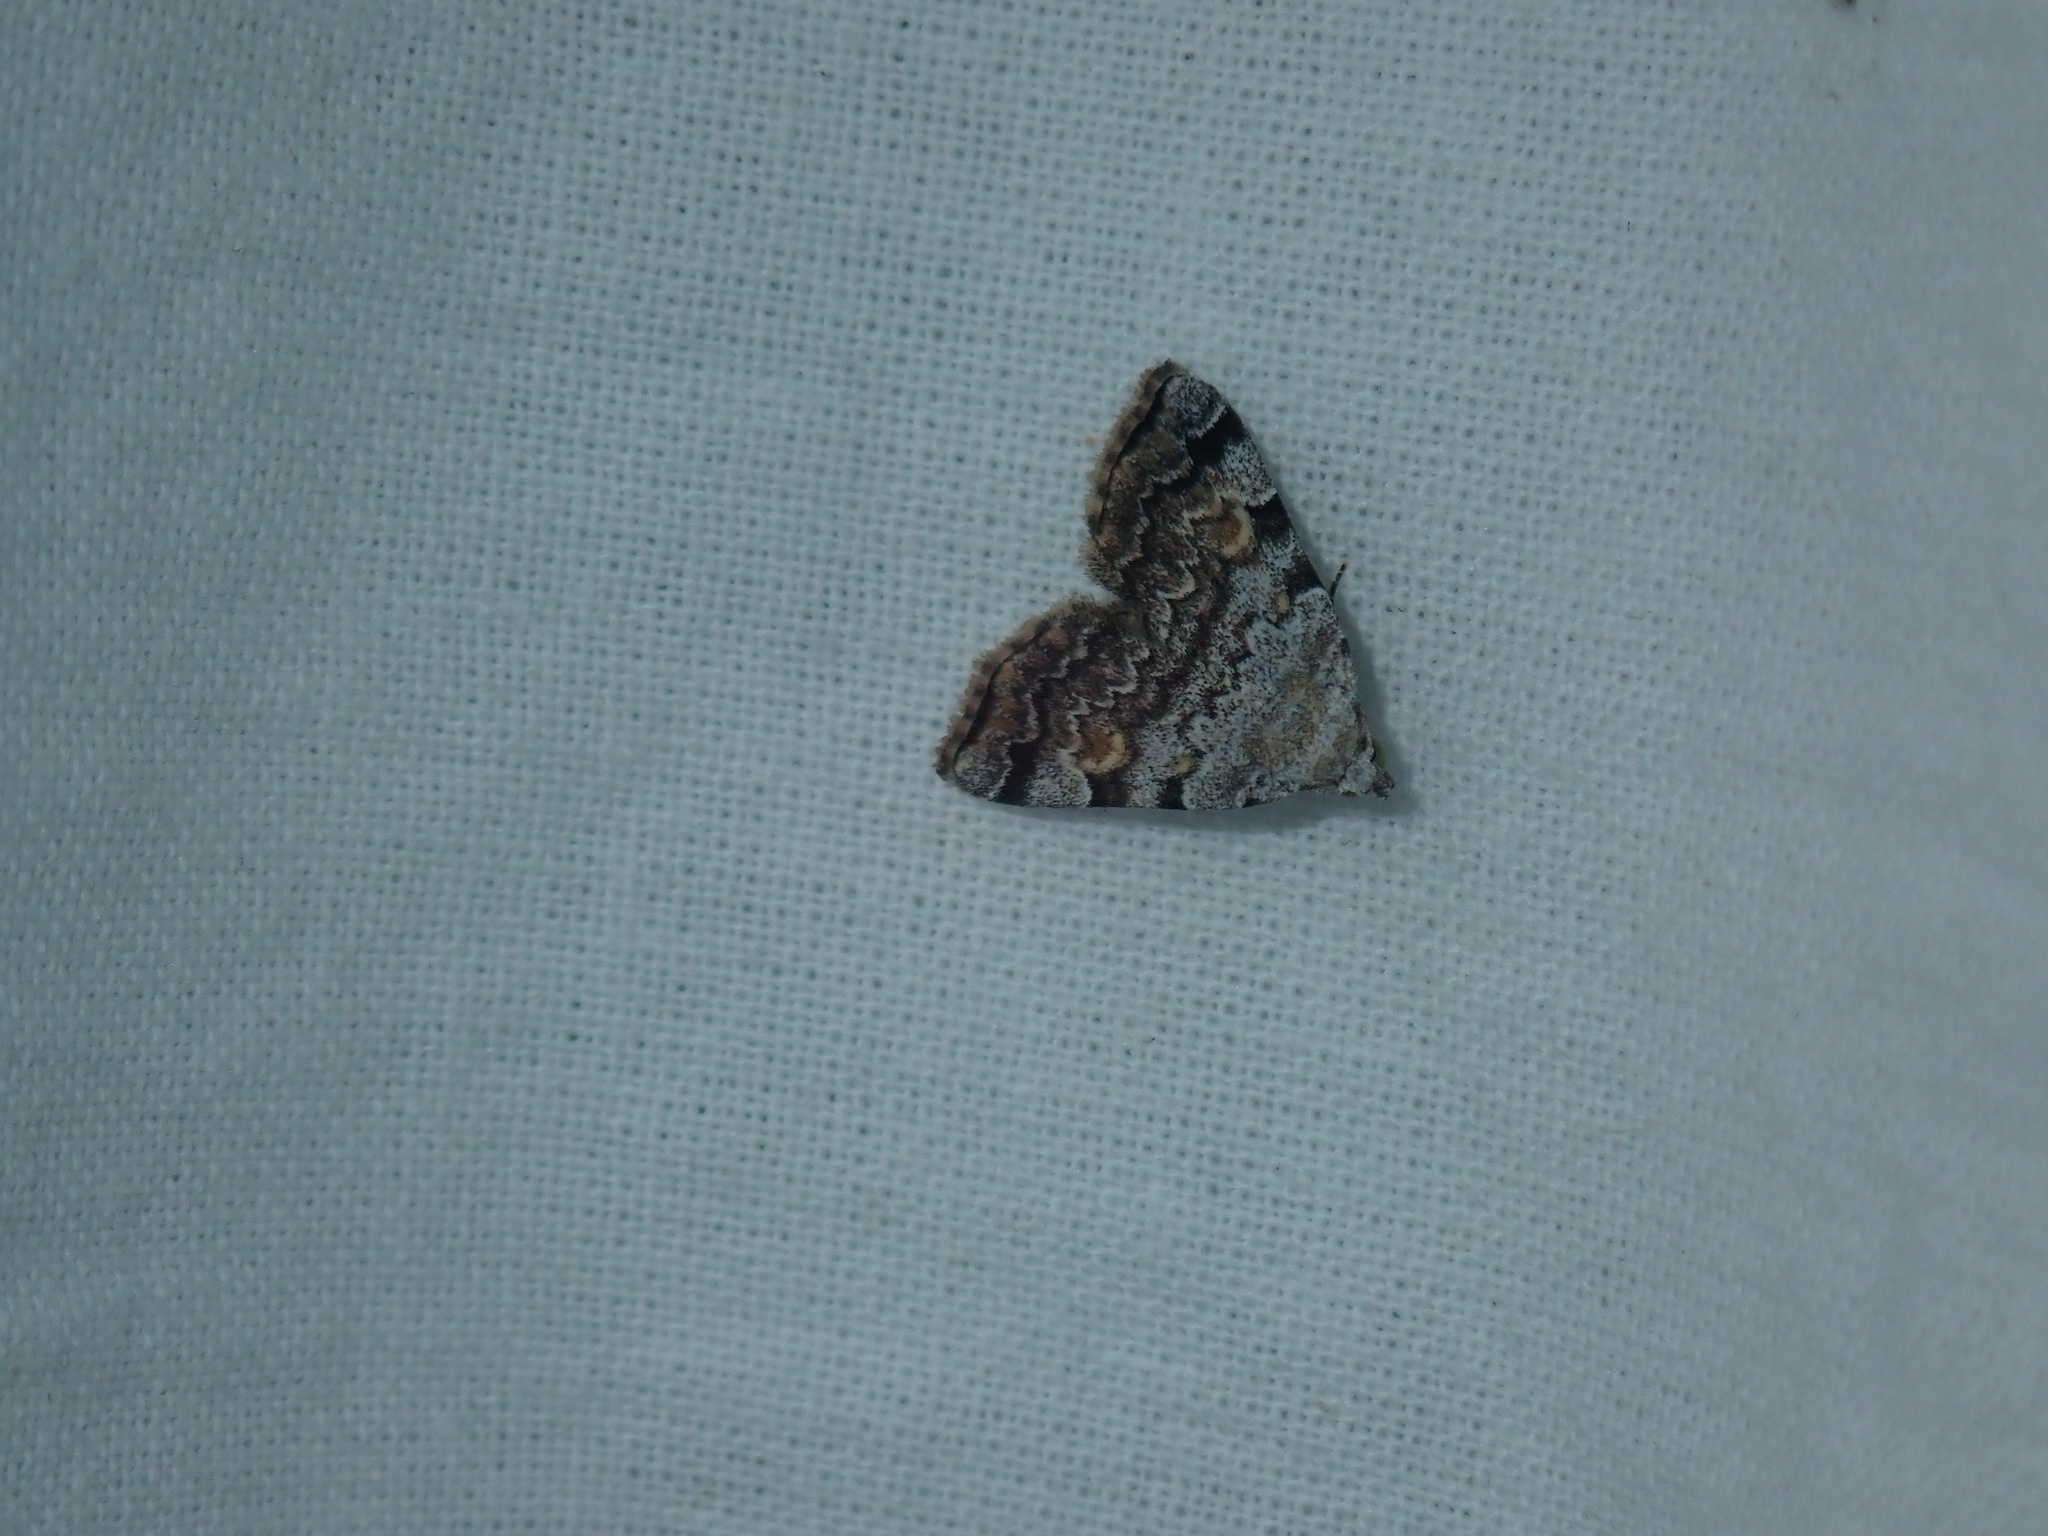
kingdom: Animalia
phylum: Arthropoda
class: Insecta
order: Lepidoptera
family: Erebidae
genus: Idia
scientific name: Idia americalis
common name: American idia moth
